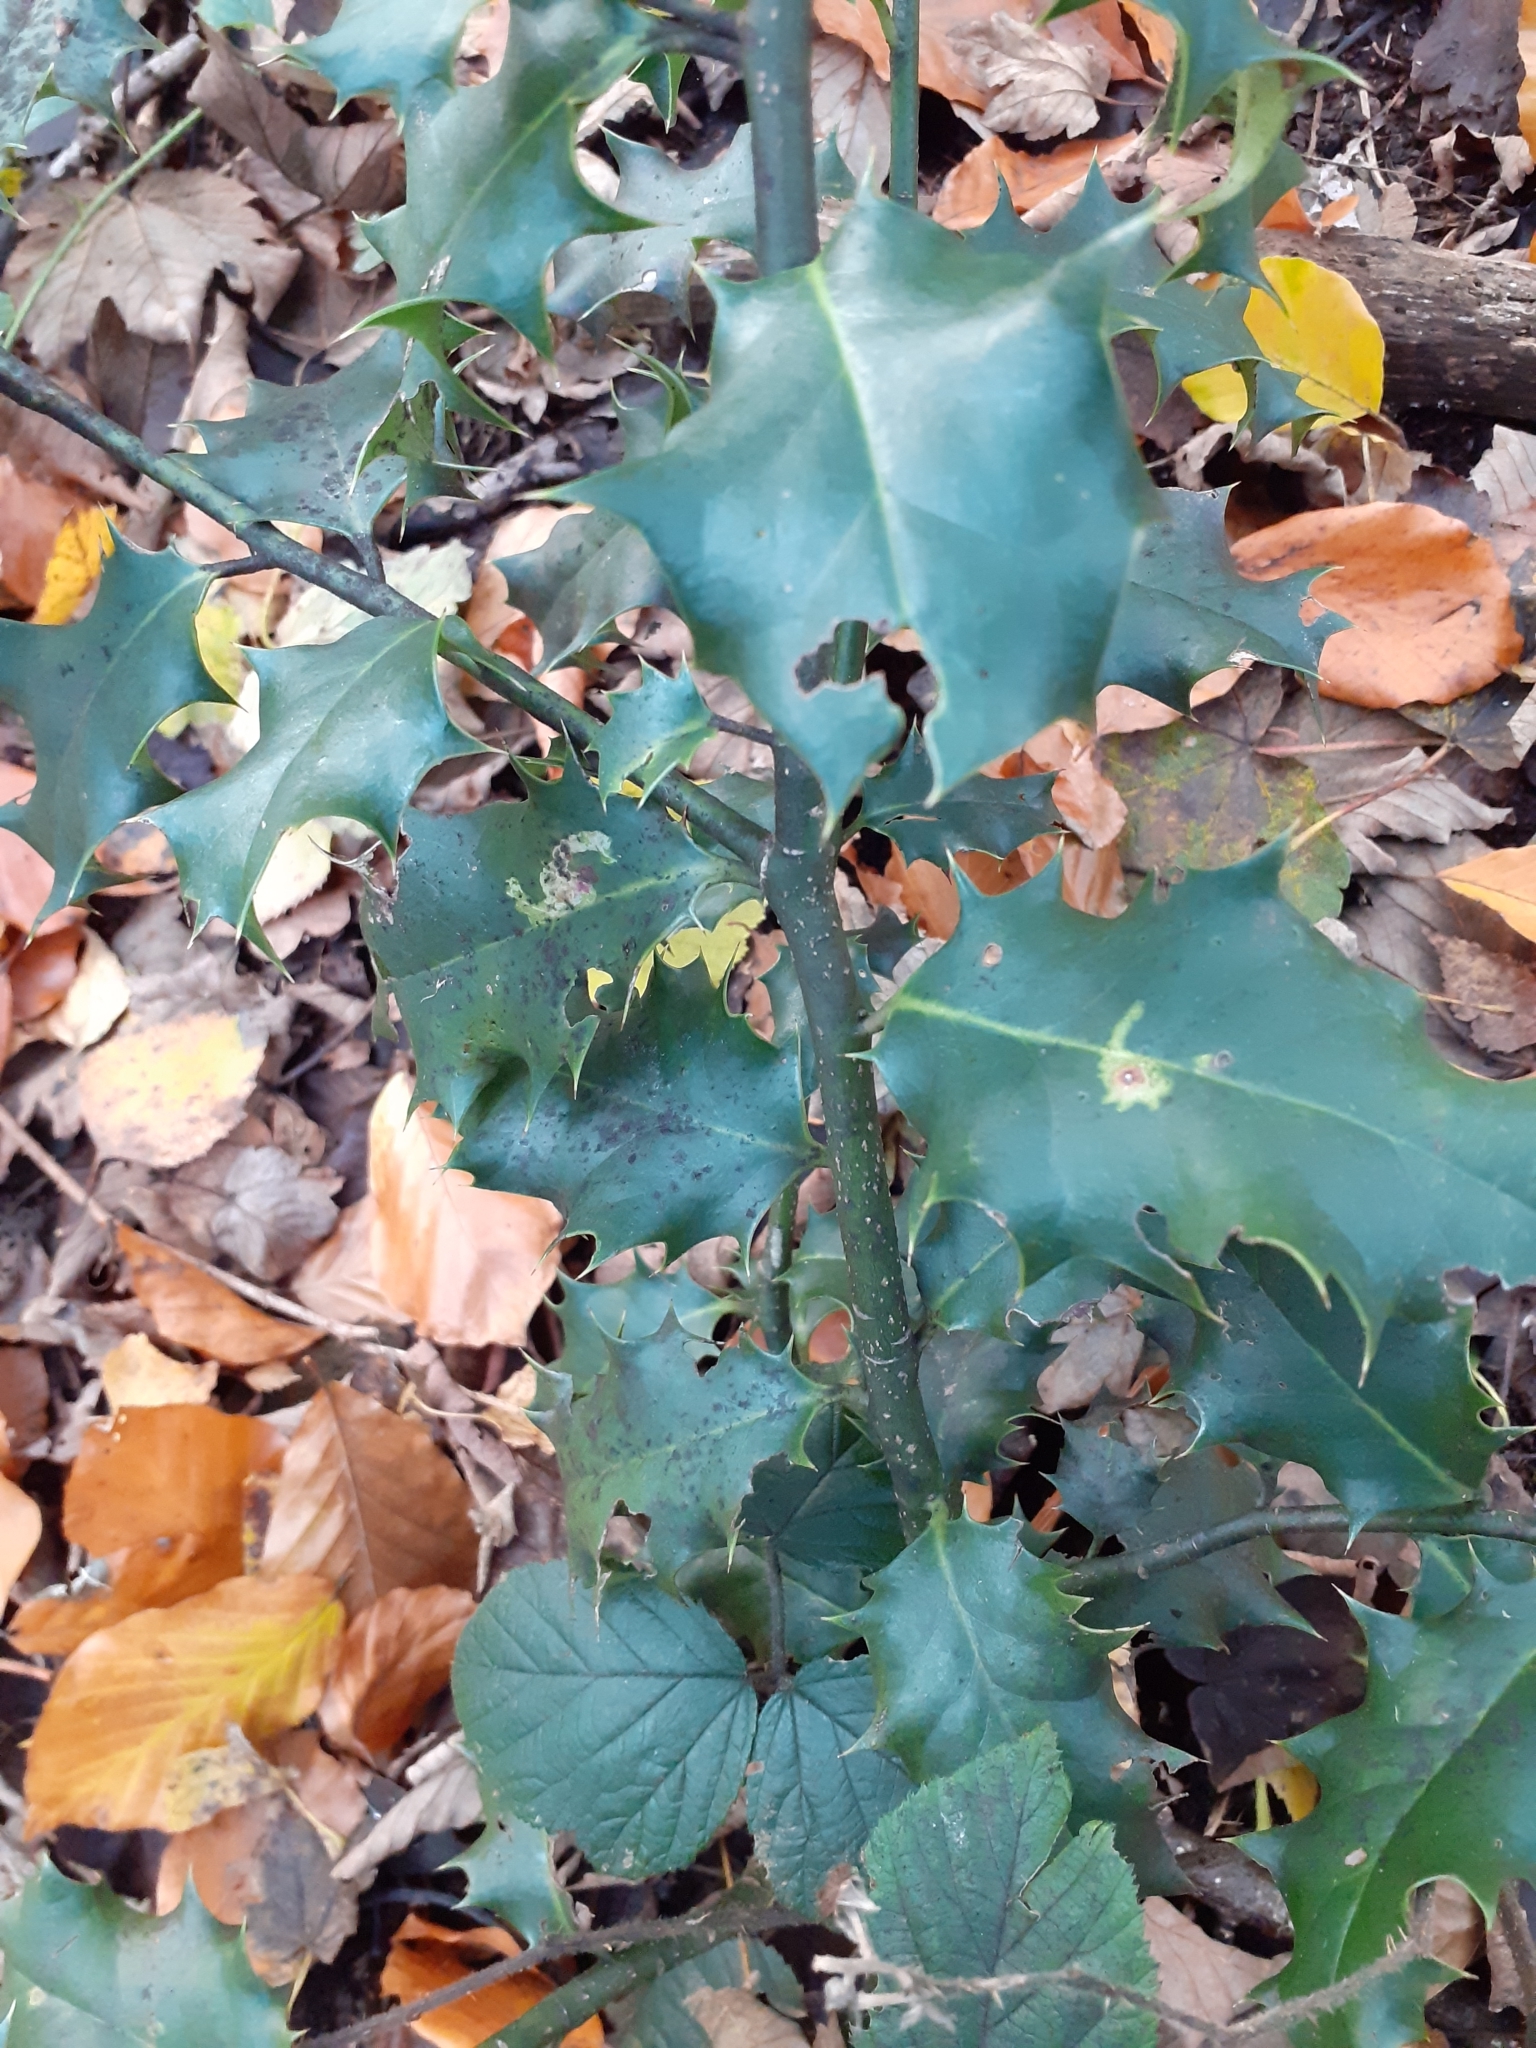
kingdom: Animalia
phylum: Arthropoda
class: Insecta
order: Diptera
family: Agromyzidae
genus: Phytomyza
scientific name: Phytomyza ilicis
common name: Holly leafminer
